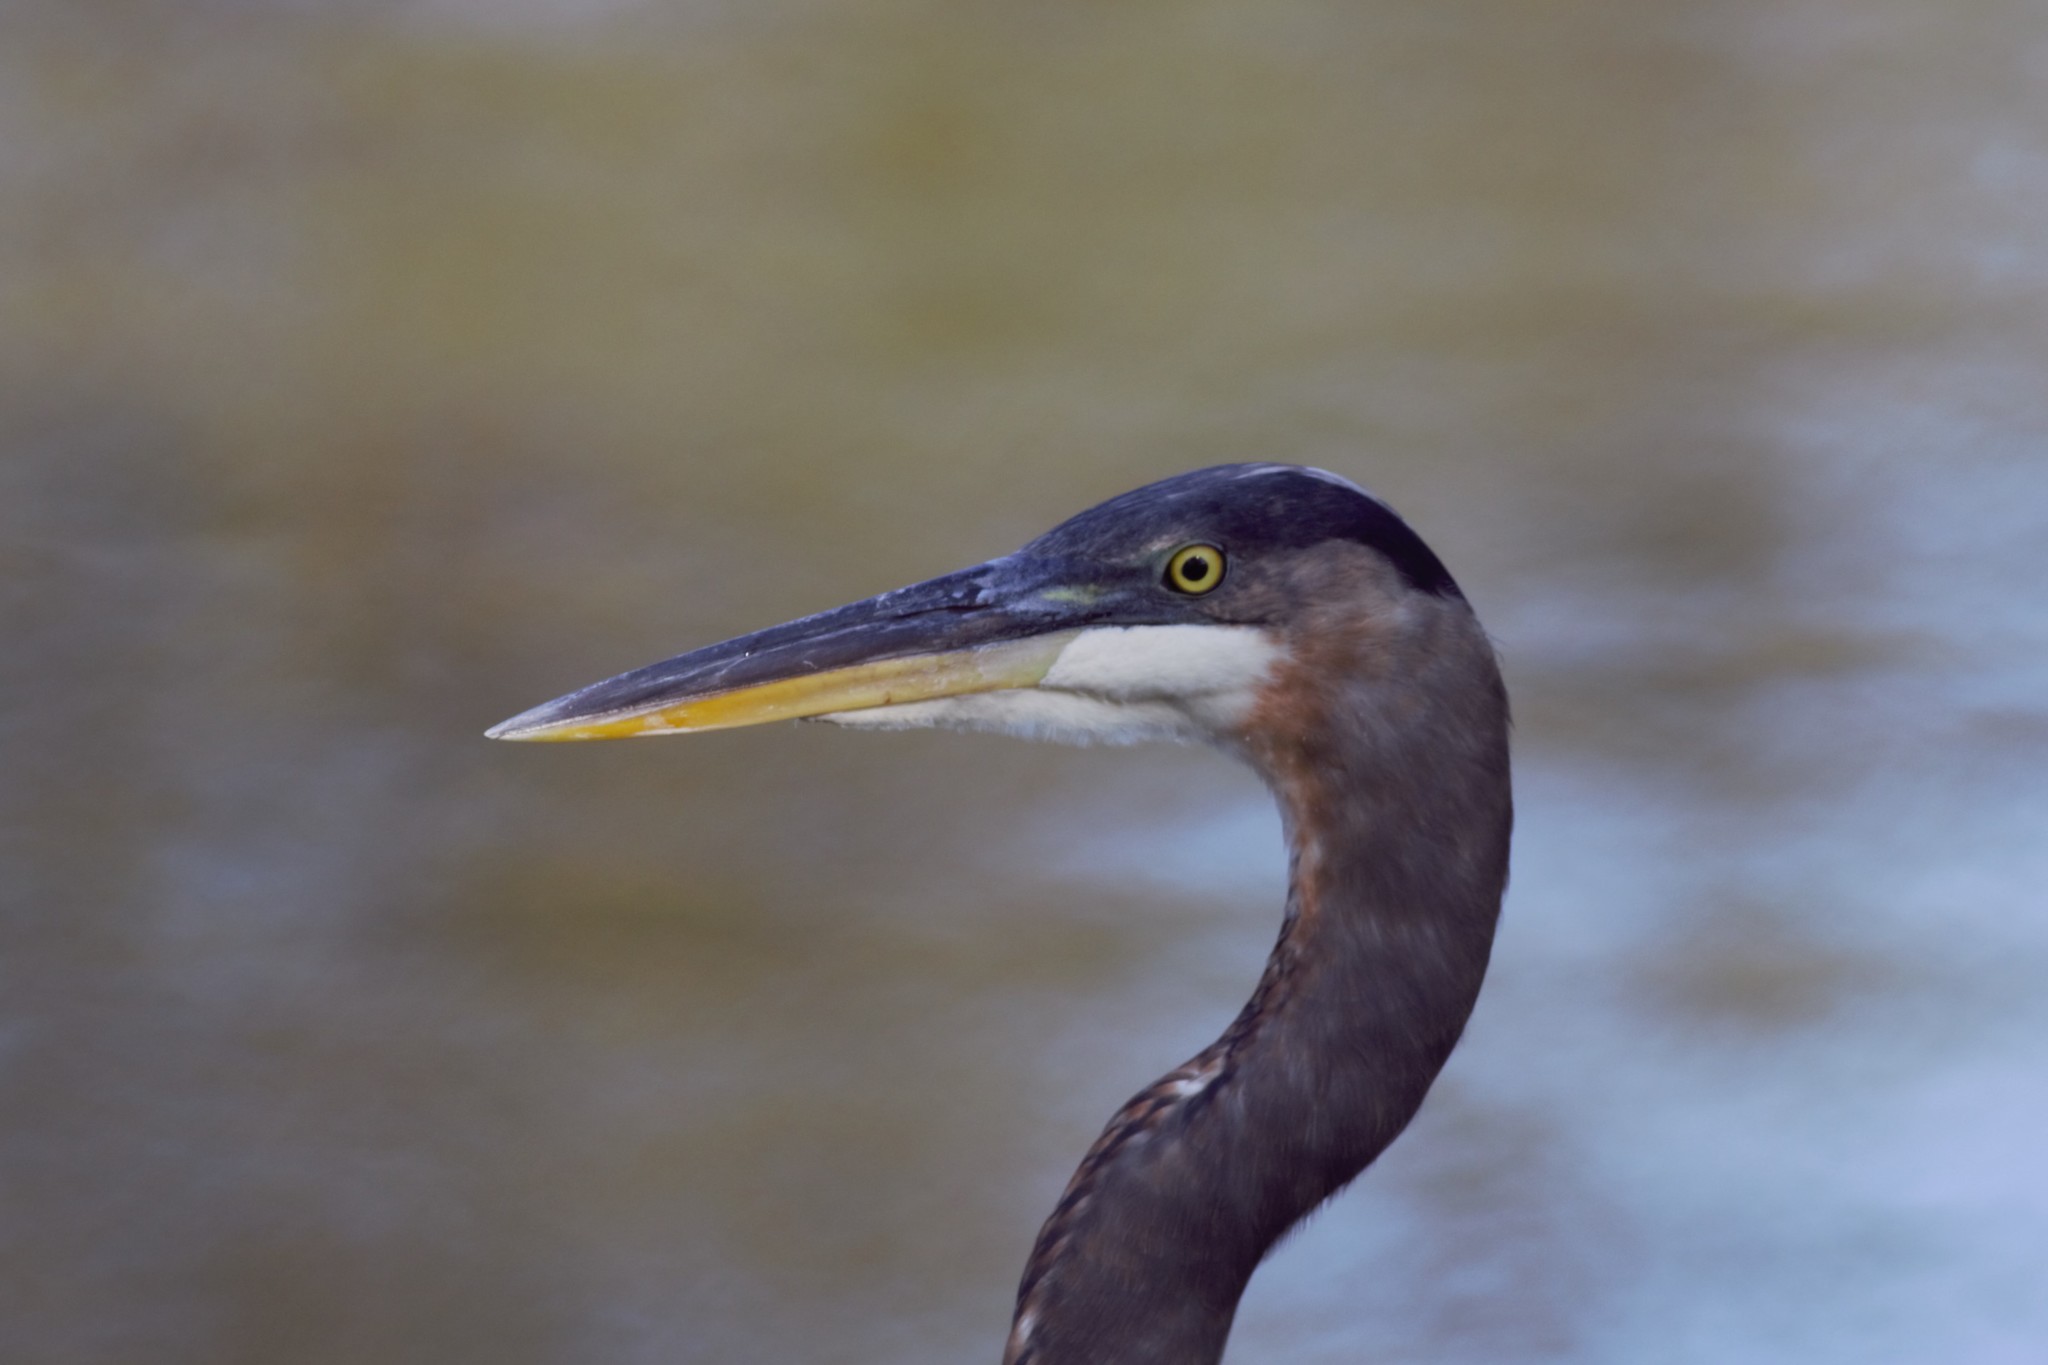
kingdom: Animalia
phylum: Chordata
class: Aves
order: Pelecaniformes
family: Ardeidae
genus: Ardea
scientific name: Ardea herodias
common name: Great blue heron
